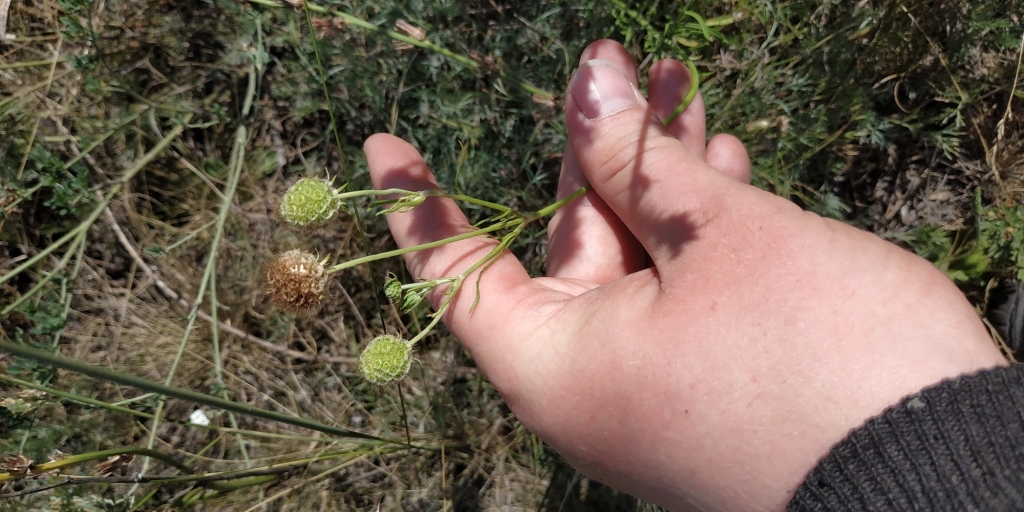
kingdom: Plantae
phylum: Tracheophyta
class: Magnoliopsida
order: Dipsacales
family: Caprifoliaceae
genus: Scabiosa
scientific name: Scabiosa ochroleuca
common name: Cream pincushions
